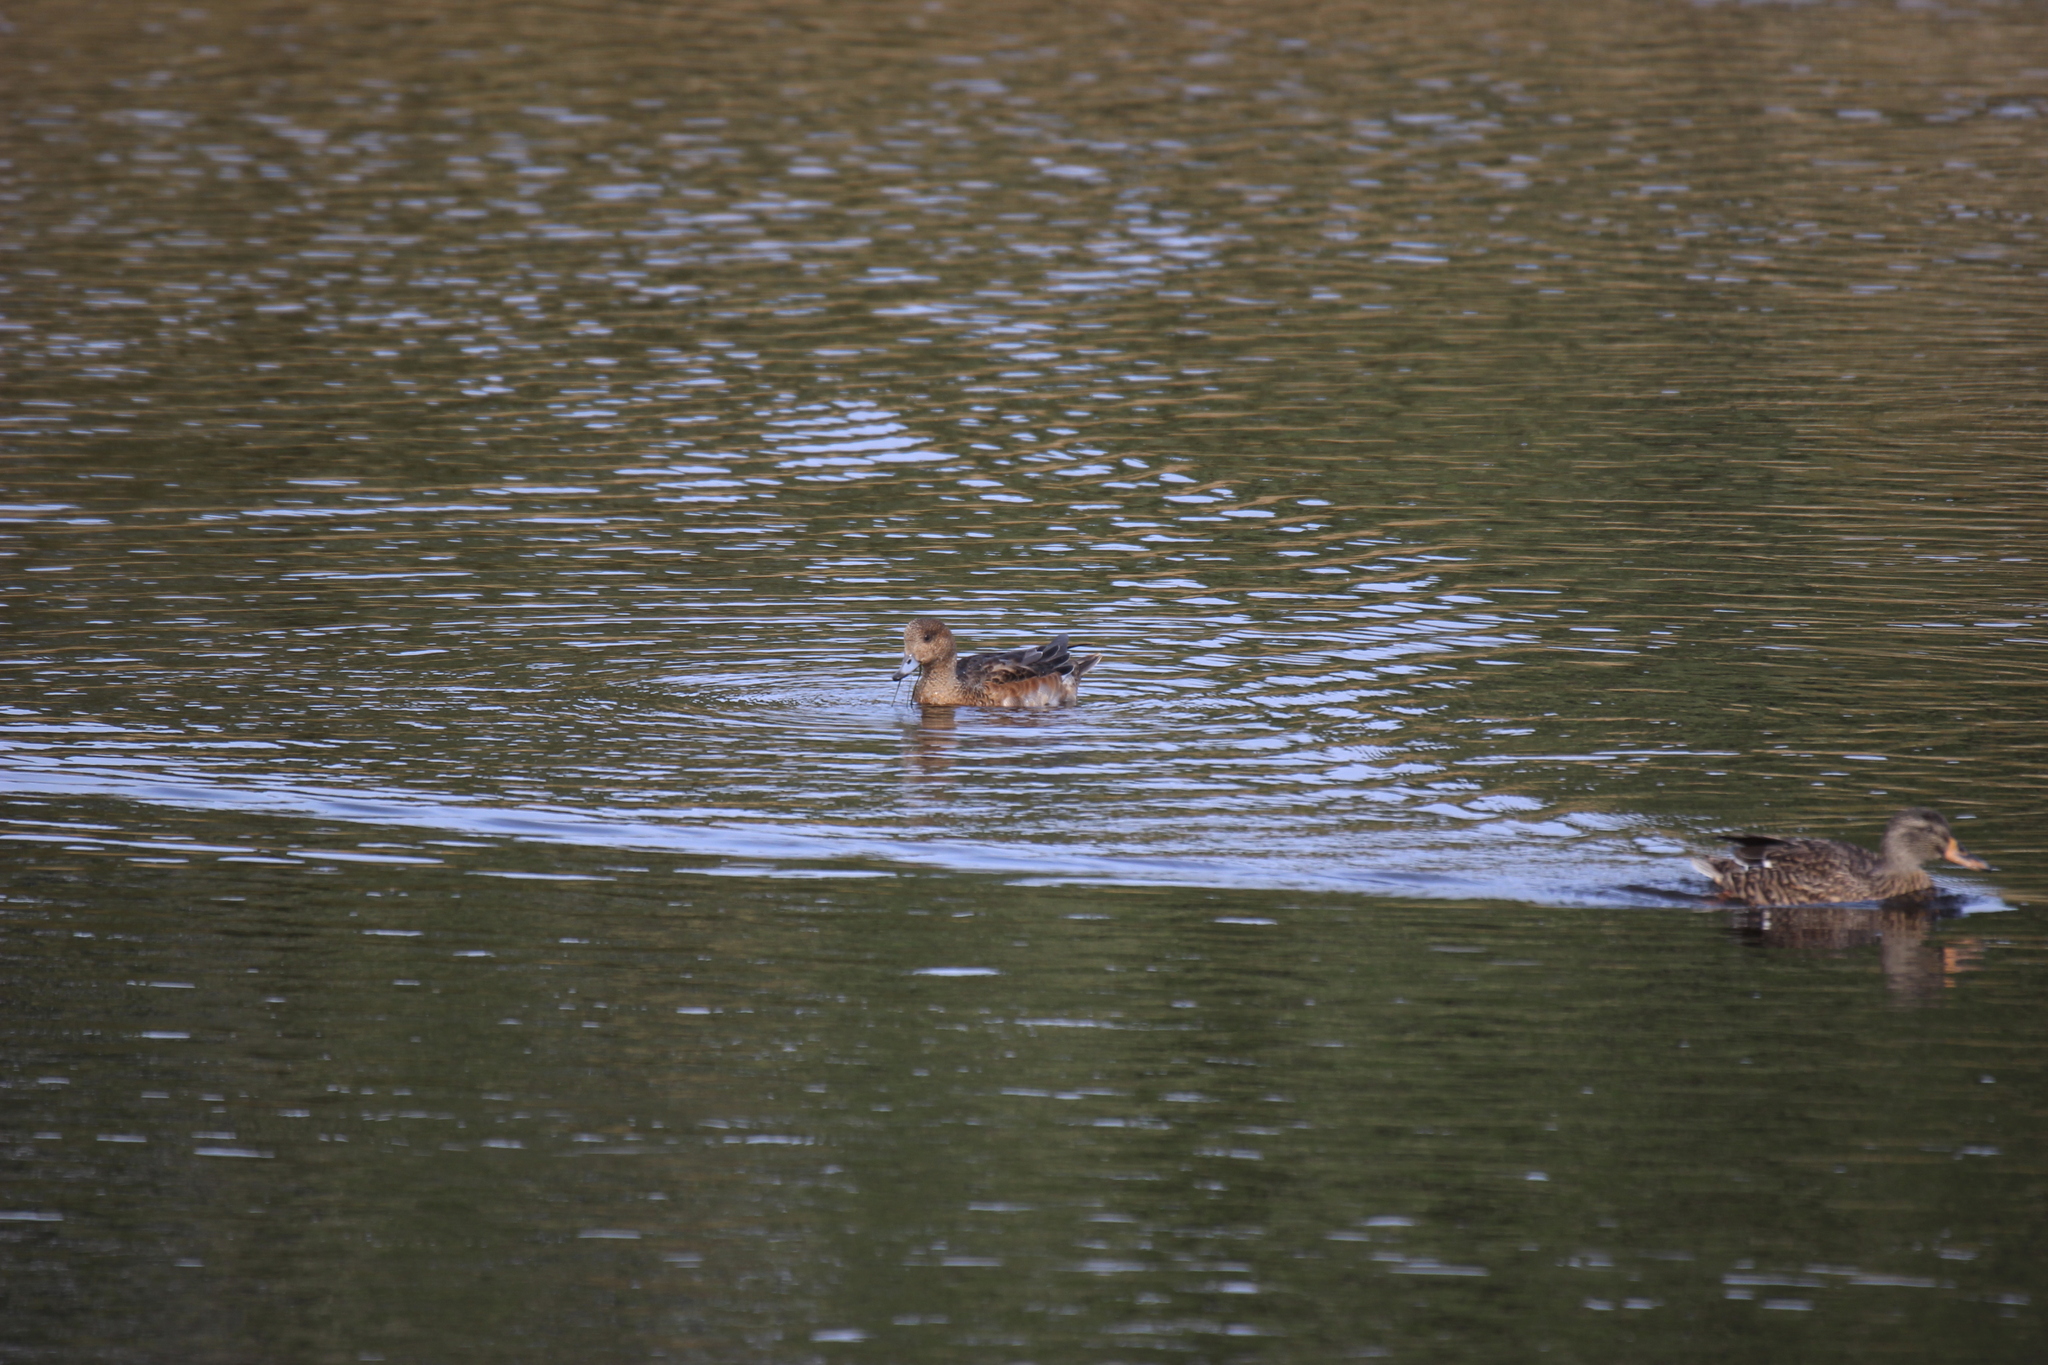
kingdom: Animalia
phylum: Chordata
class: Aves
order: Anseriformes
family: Anatidae
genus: Mareca
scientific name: Mareca penelope
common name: Eurasian wigeon
